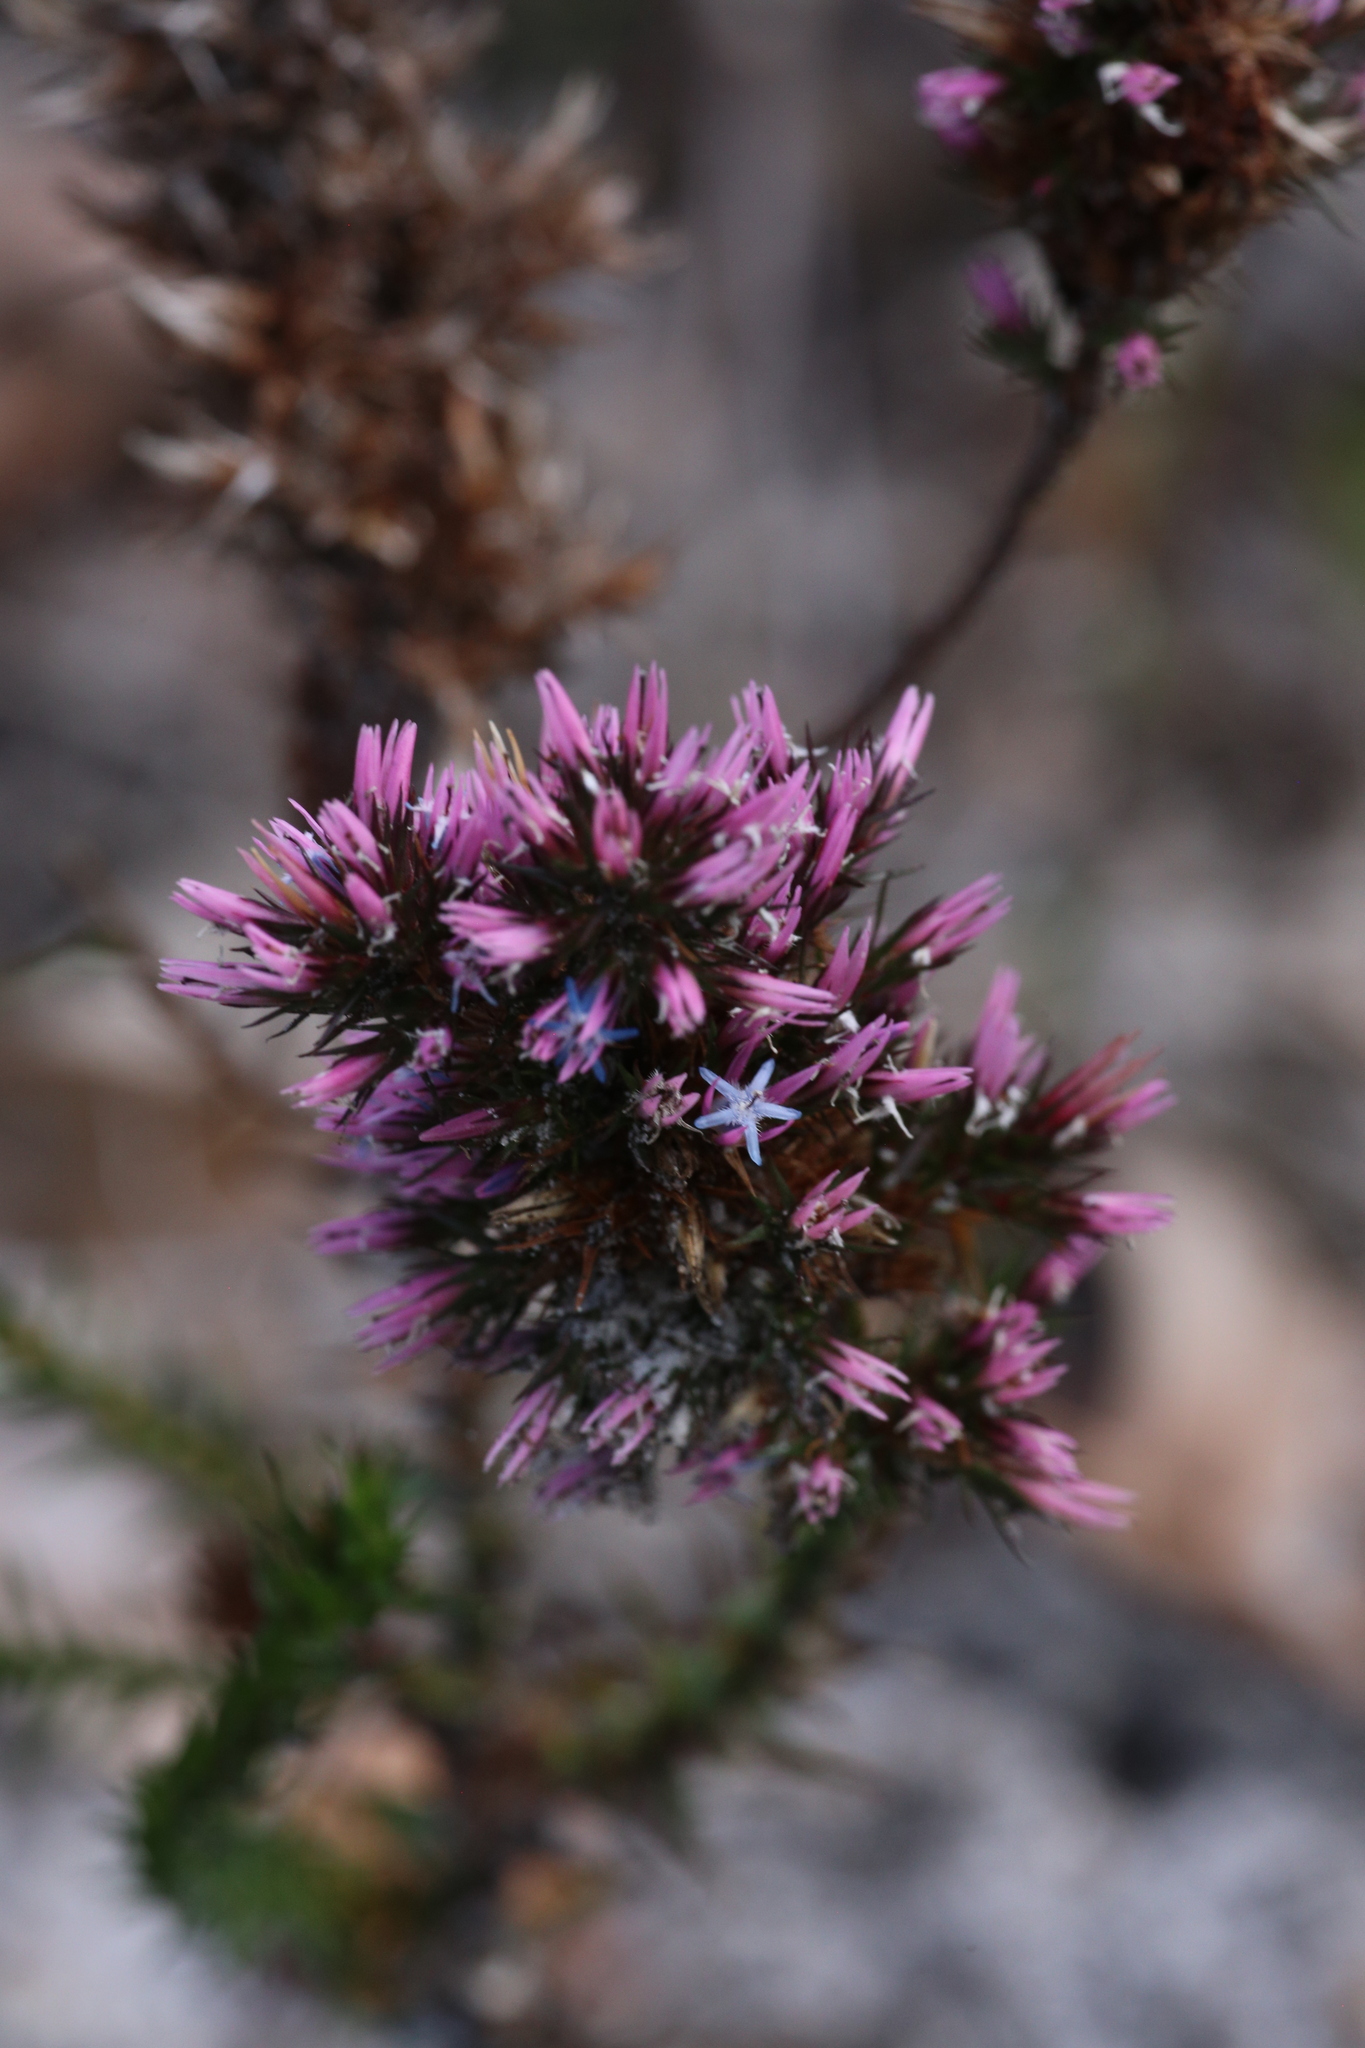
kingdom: Plantae
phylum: Tracheophyta
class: Magnoliopsida
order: Ericales
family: Ericaceae
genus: Andersonia
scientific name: Andersonia caerulea
